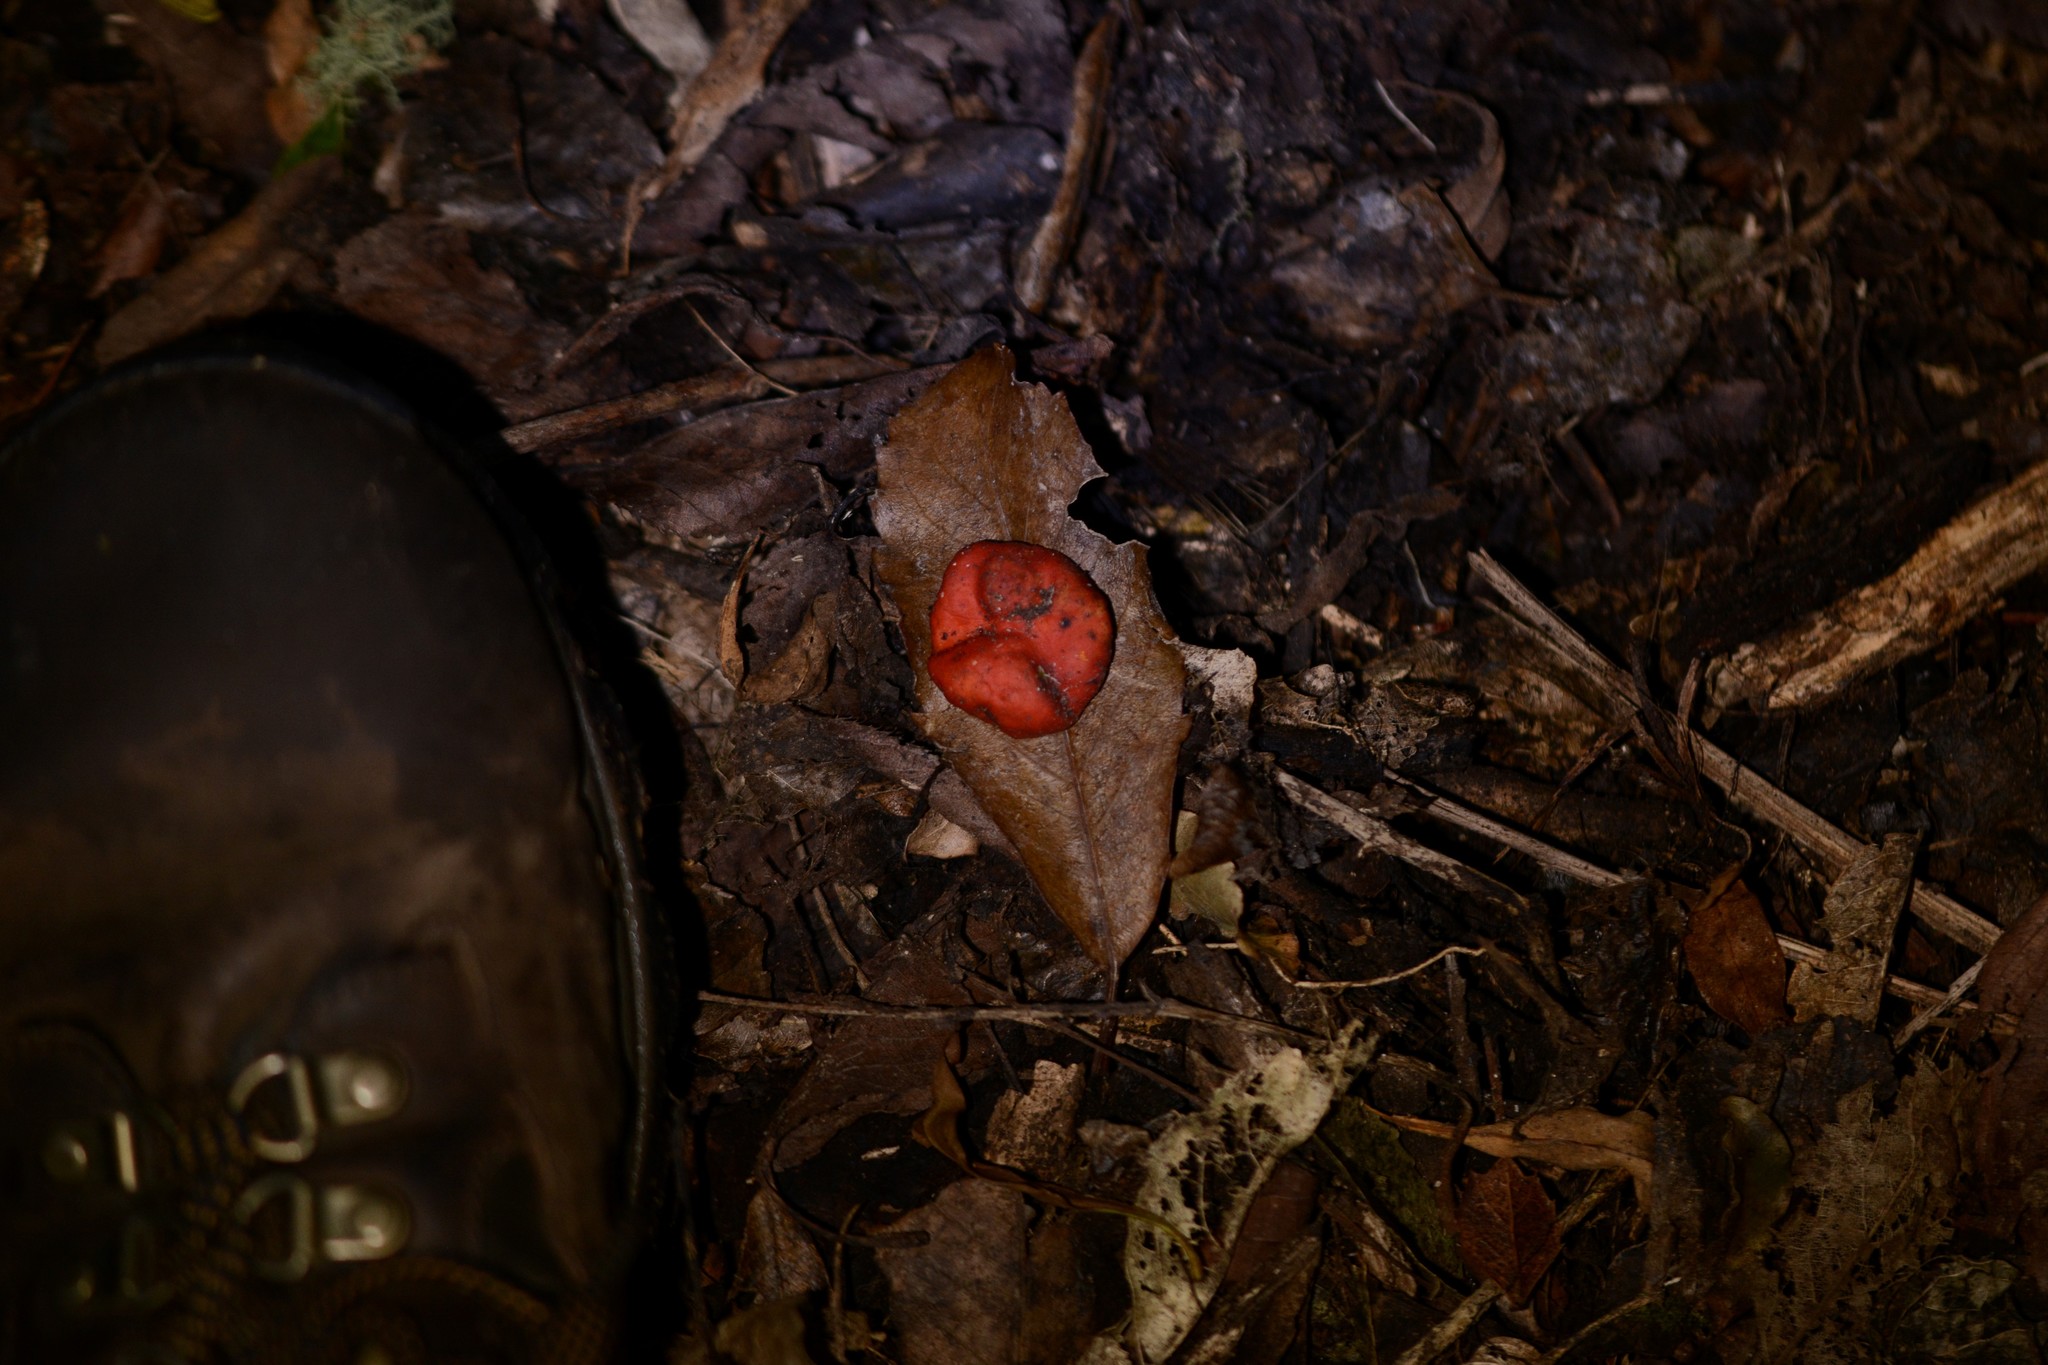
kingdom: Fungi
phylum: Ascomycota
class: Pezizomycetes
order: Pezizales
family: Pyronemataceae
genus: Paurocotylis
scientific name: Paurocotylis pila
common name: Scarlet berry truffle
